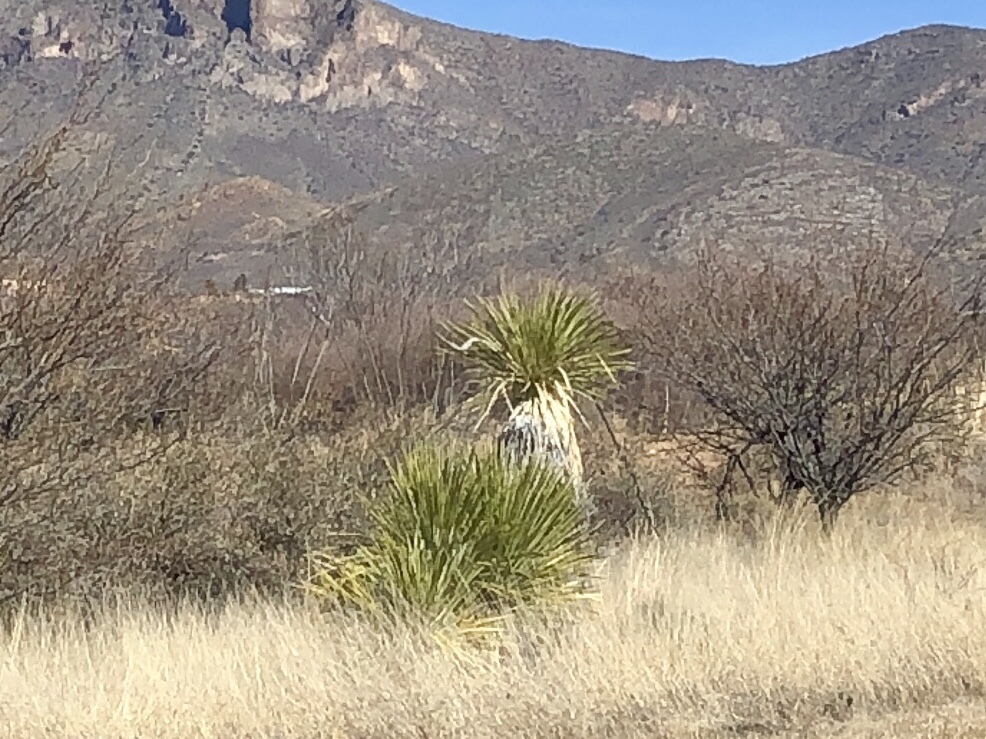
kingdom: Plantae
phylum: Tracheophyta
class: Liliopsida
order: Asparagales
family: Asparagaceae
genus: Yucca
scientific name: Yucca elata
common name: Palmella
